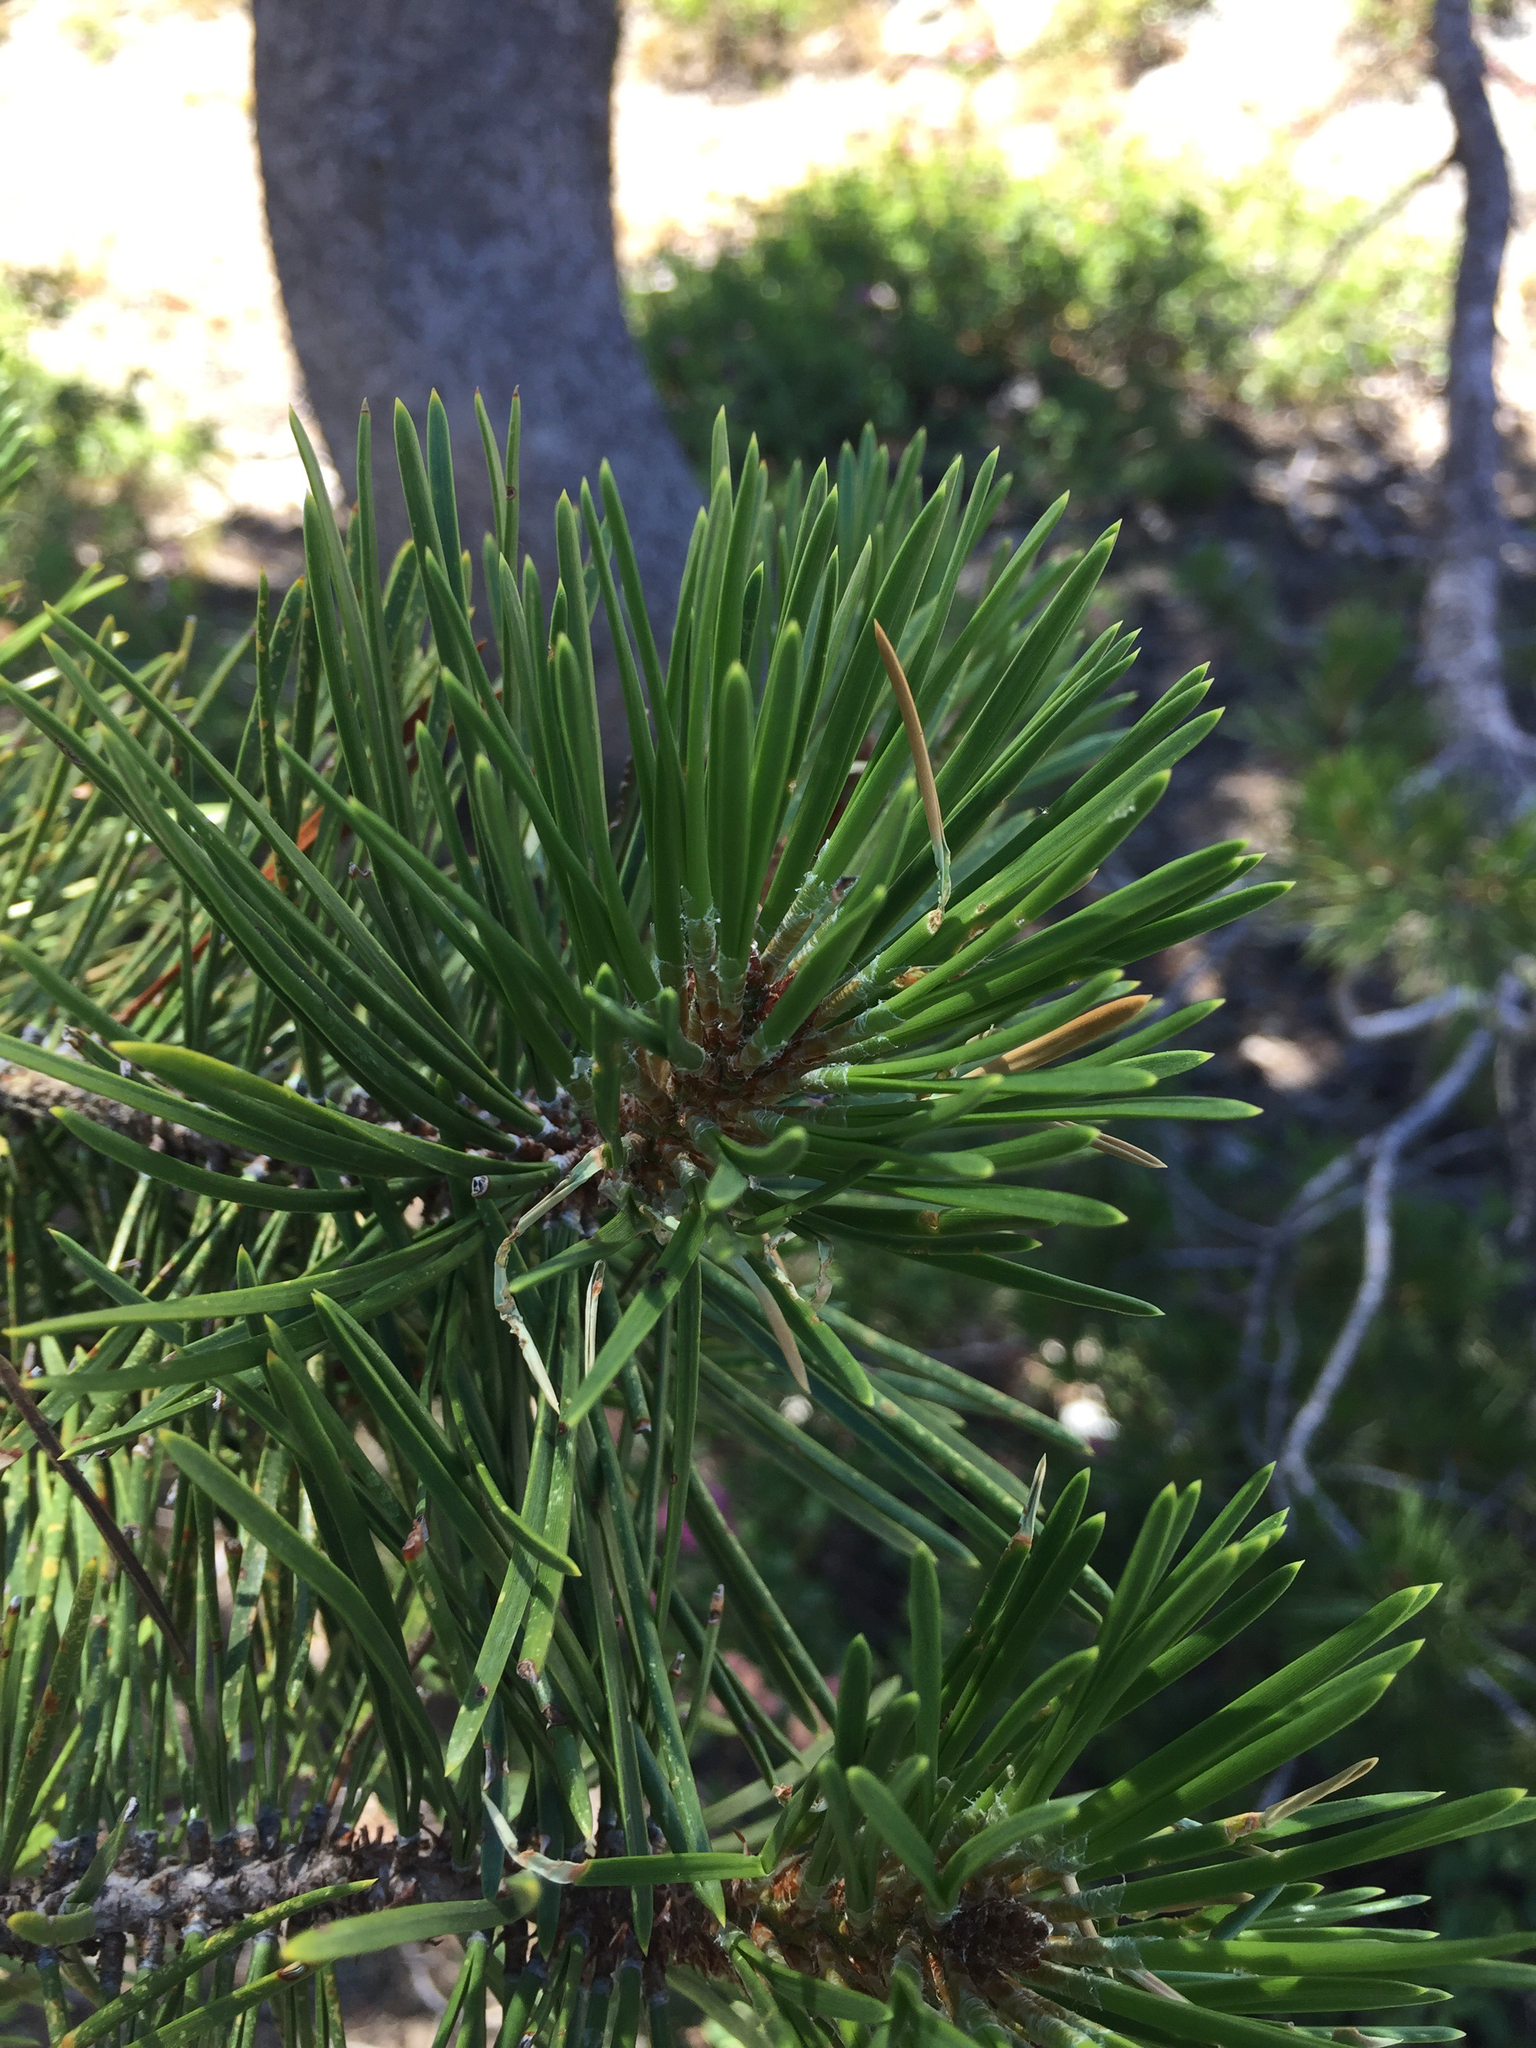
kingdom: Plantae
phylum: Tracheophyta
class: Pinopsida
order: Pinales
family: Pinaceae
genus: Pinus
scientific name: Pinus contorta
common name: Lodgepole pine
